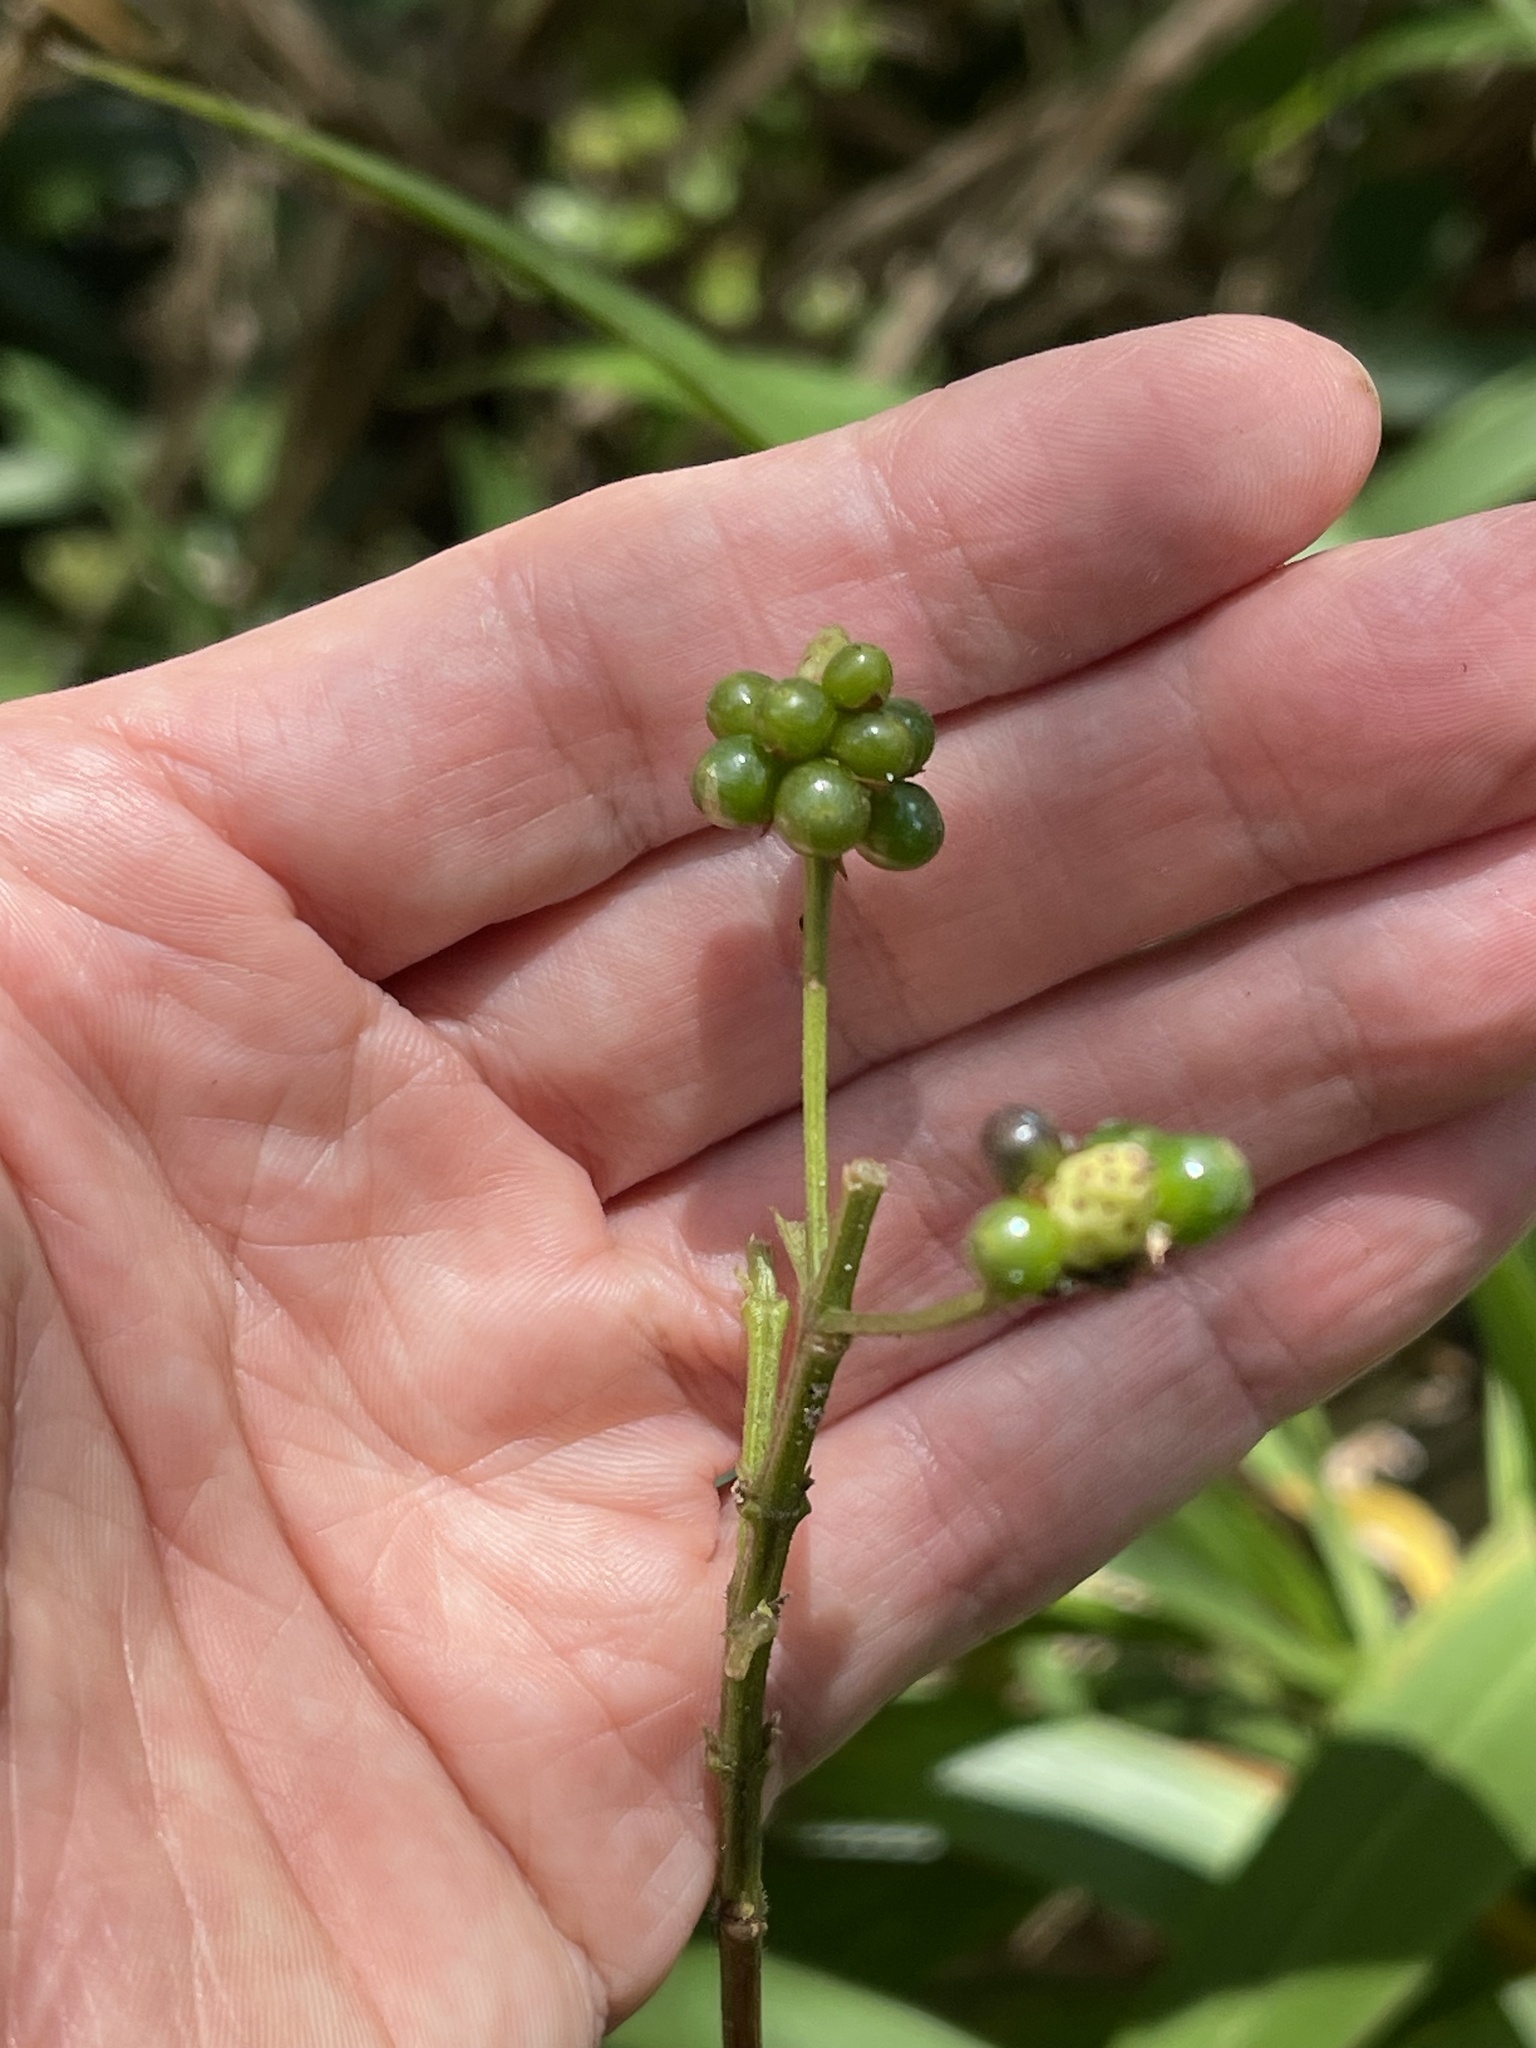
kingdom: Plantae
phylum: Tracheophyta
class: Magnoliopsida
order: Lamiales
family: Verbenaceae
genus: Lantana
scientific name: Lantana camara
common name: Lantana
